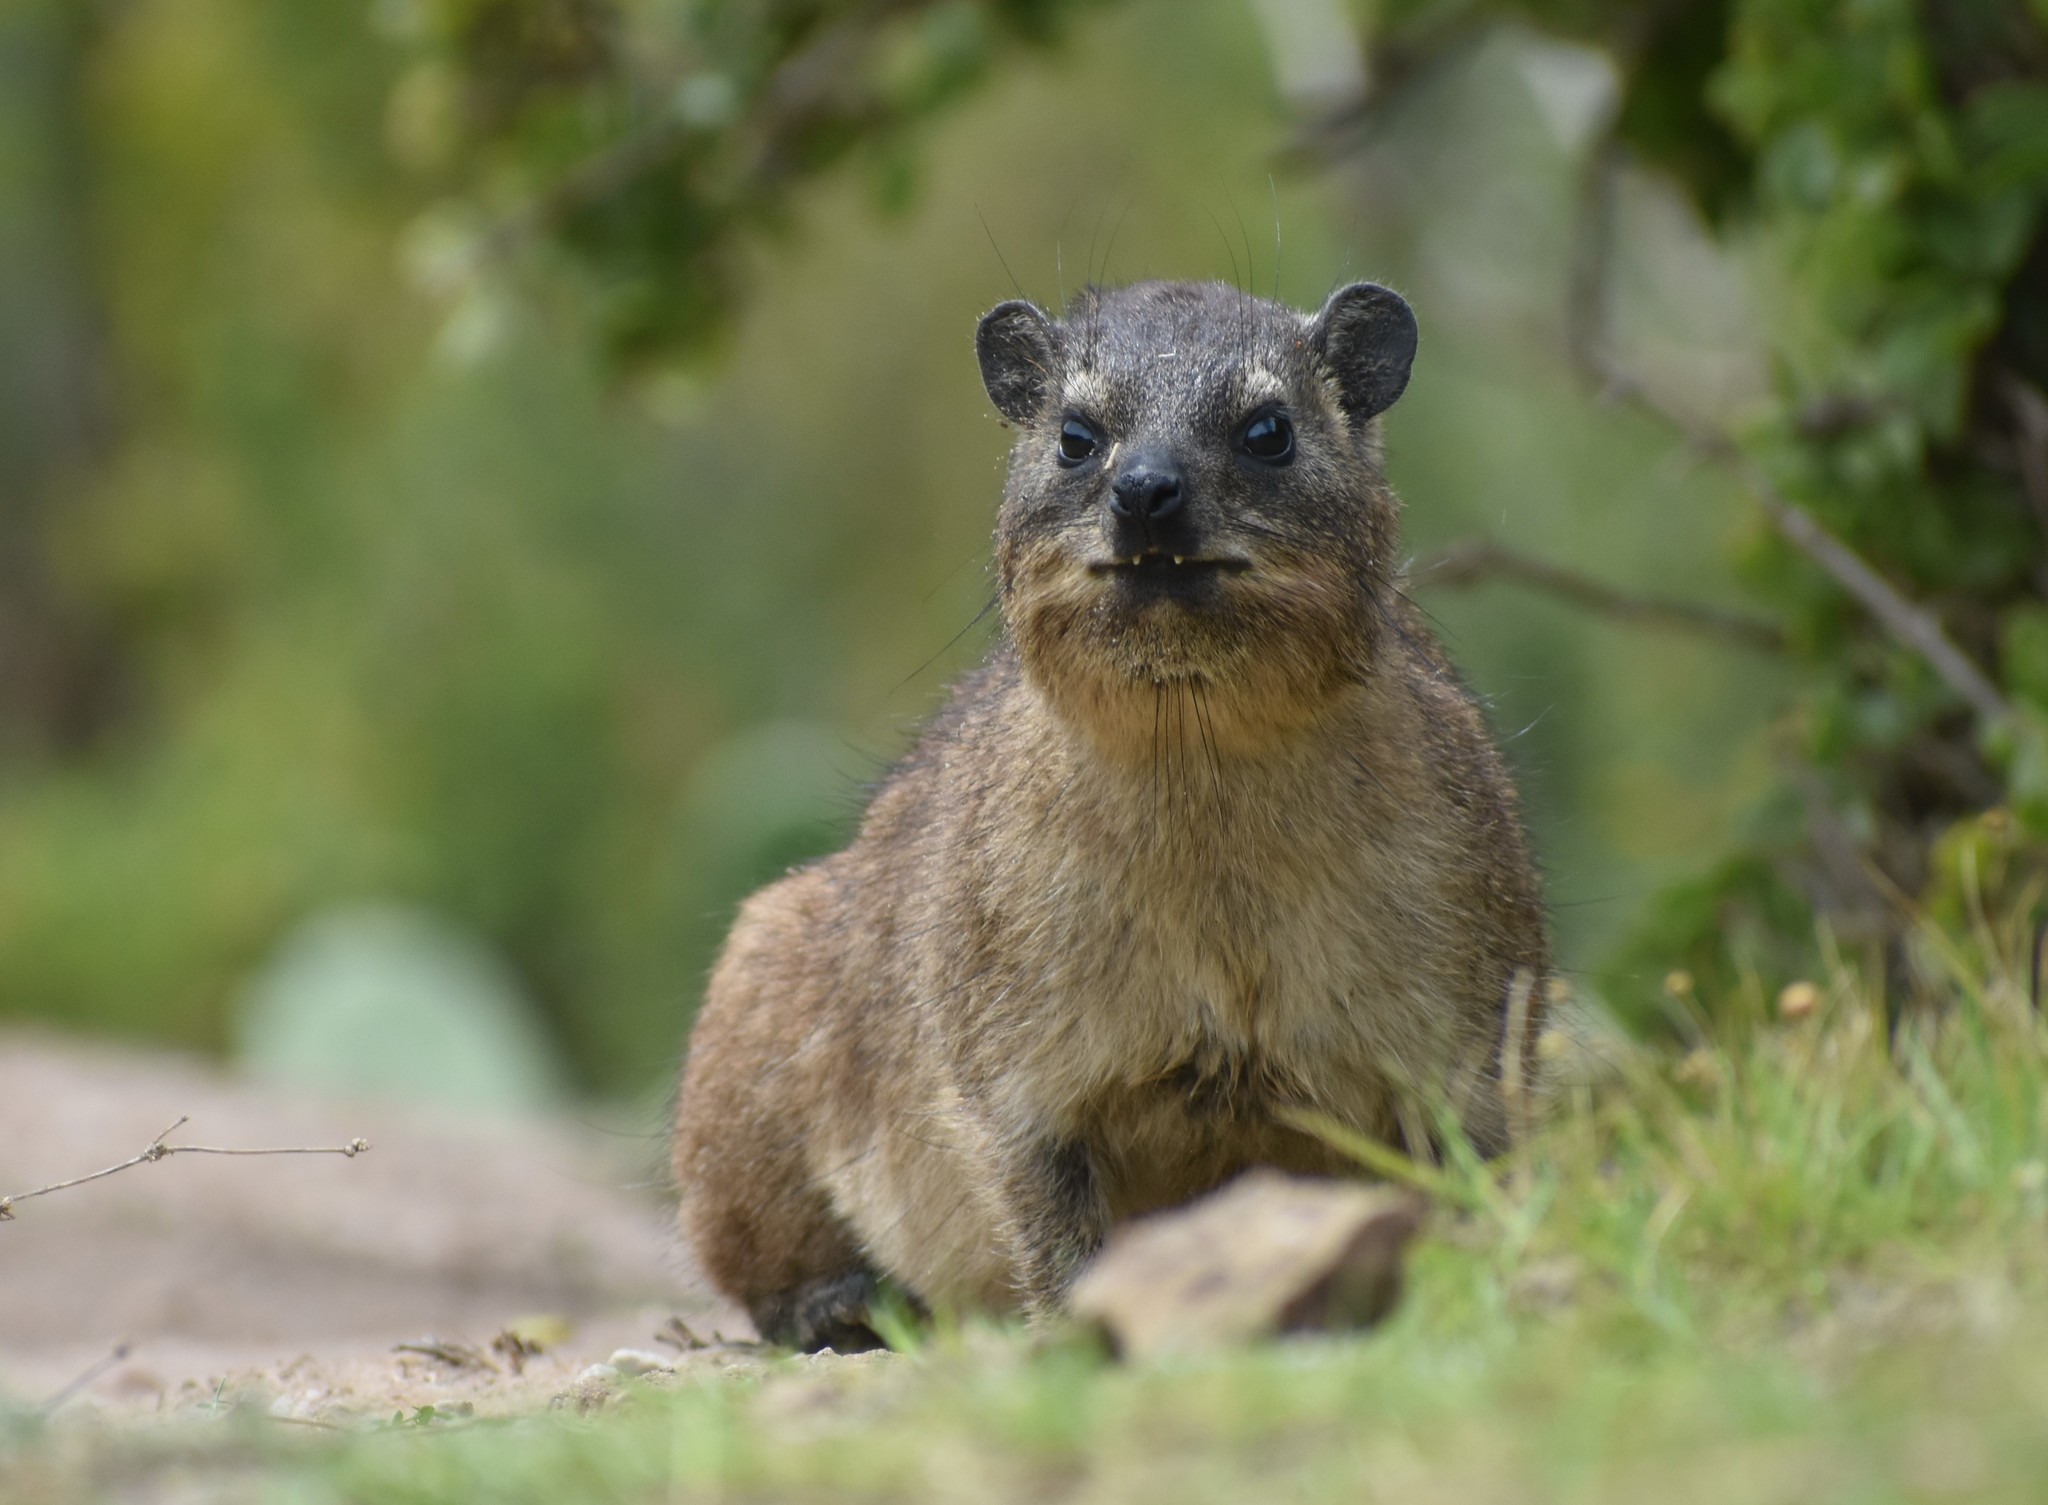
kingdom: Animalia
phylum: Chordata
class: Mammalia
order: Hyracoidea
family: Procaviidae
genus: Procavia
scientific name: Procavia capensis
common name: Rock hyrax
